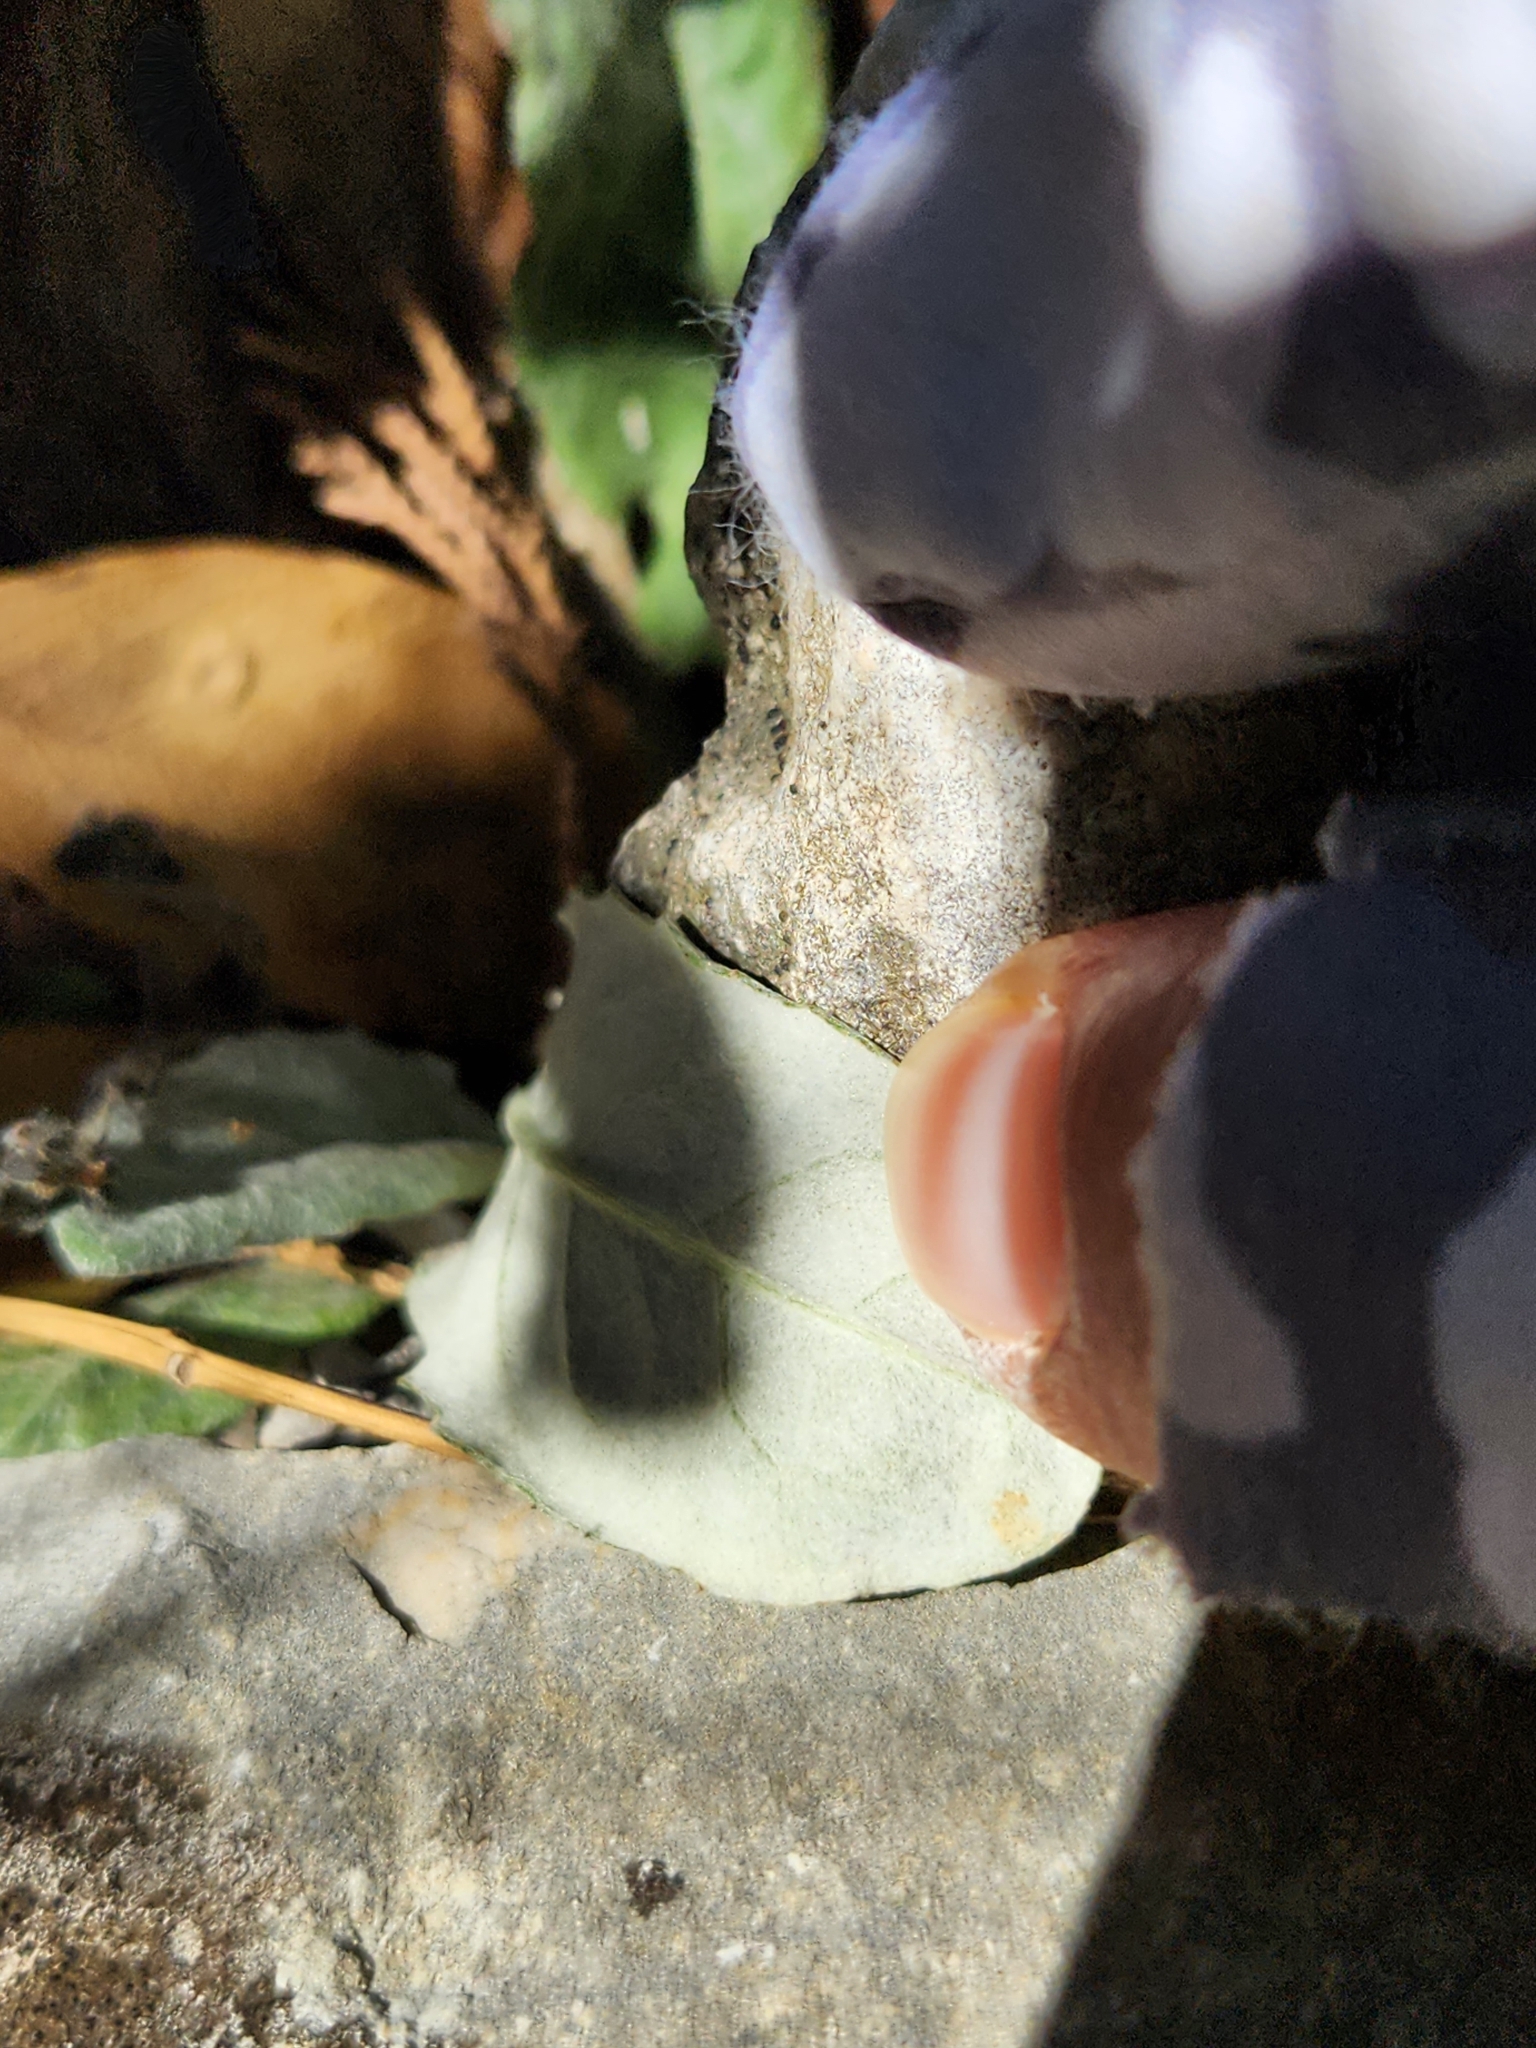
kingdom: Plantae
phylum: Tracheophyta
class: Magnoliopsida
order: Asterales
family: Asteraceae
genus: Chaptalia
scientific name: Chaptalia texana
